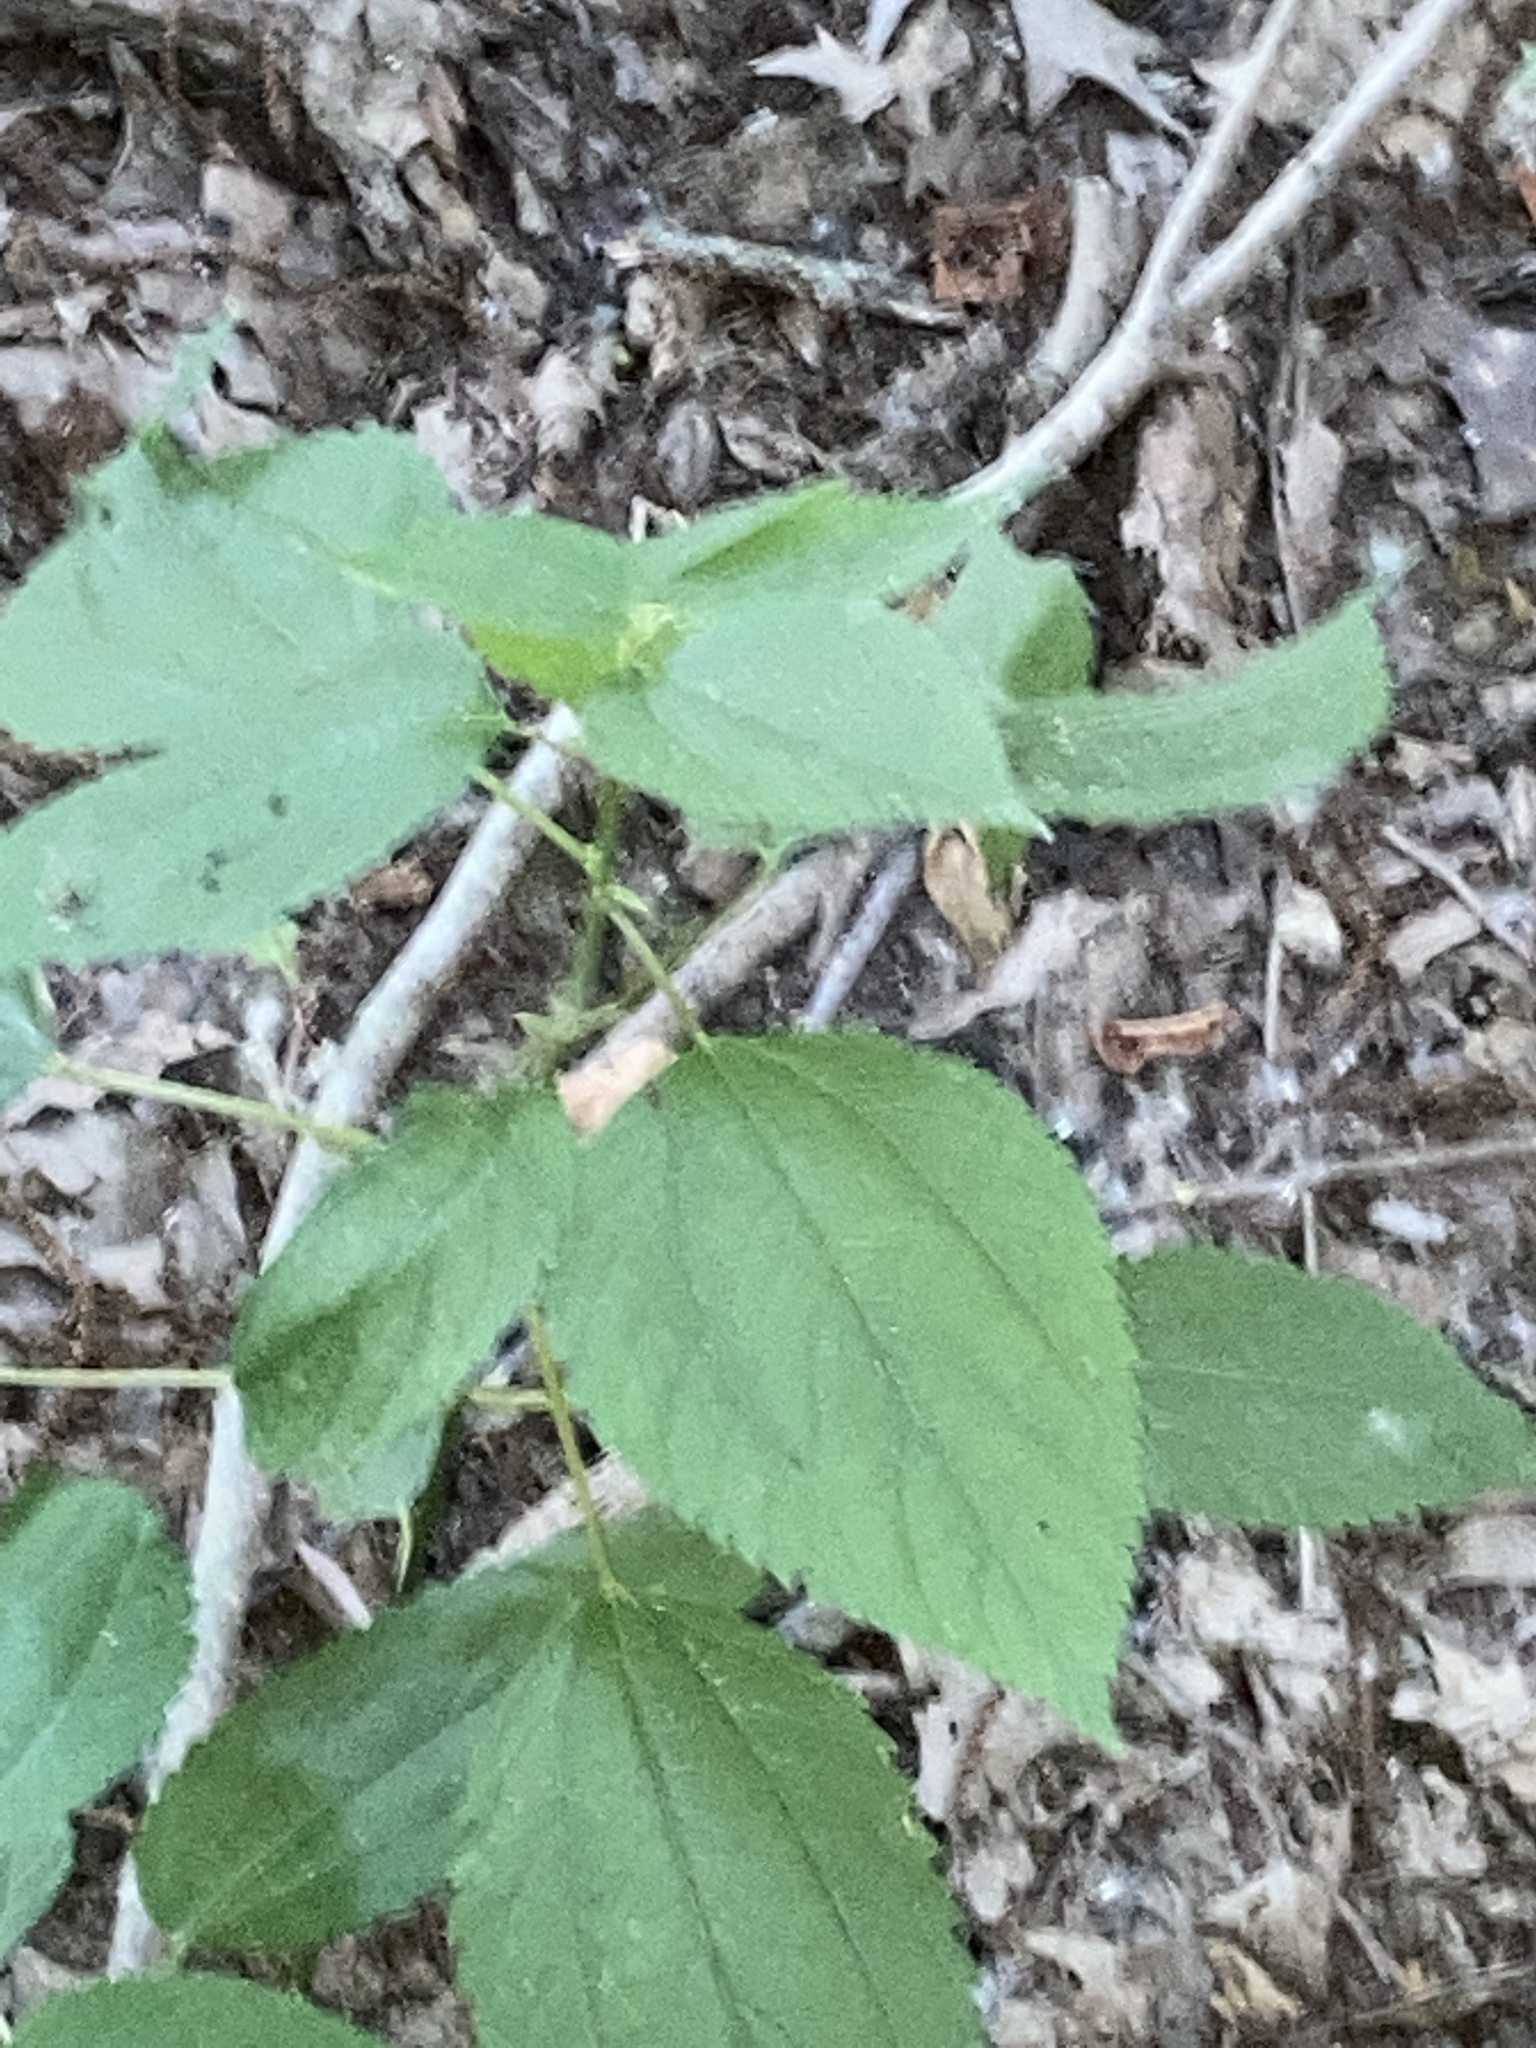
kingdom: Plantae
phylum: Tracheophyta
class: Magnoliopsida
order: Rosales
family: Urticaceae
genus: Boehmeria
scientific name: Boehmeria cylindrica
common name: Bog-hemp
